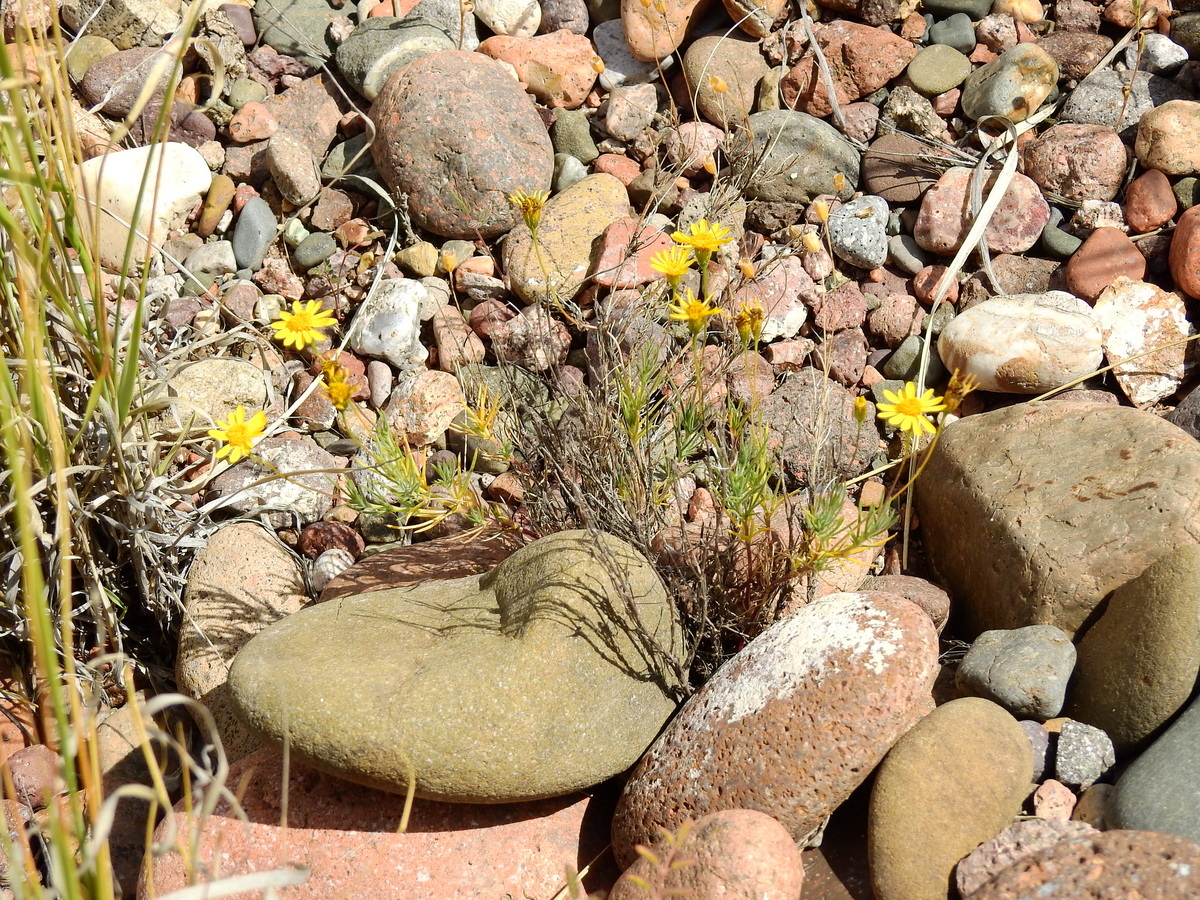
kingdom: Plantae
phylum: Tracheophyta
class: Magnoliopsida
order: Asterales
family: Asteraceae
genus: Thymophylla
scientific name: Thymophylla pentachaeta
